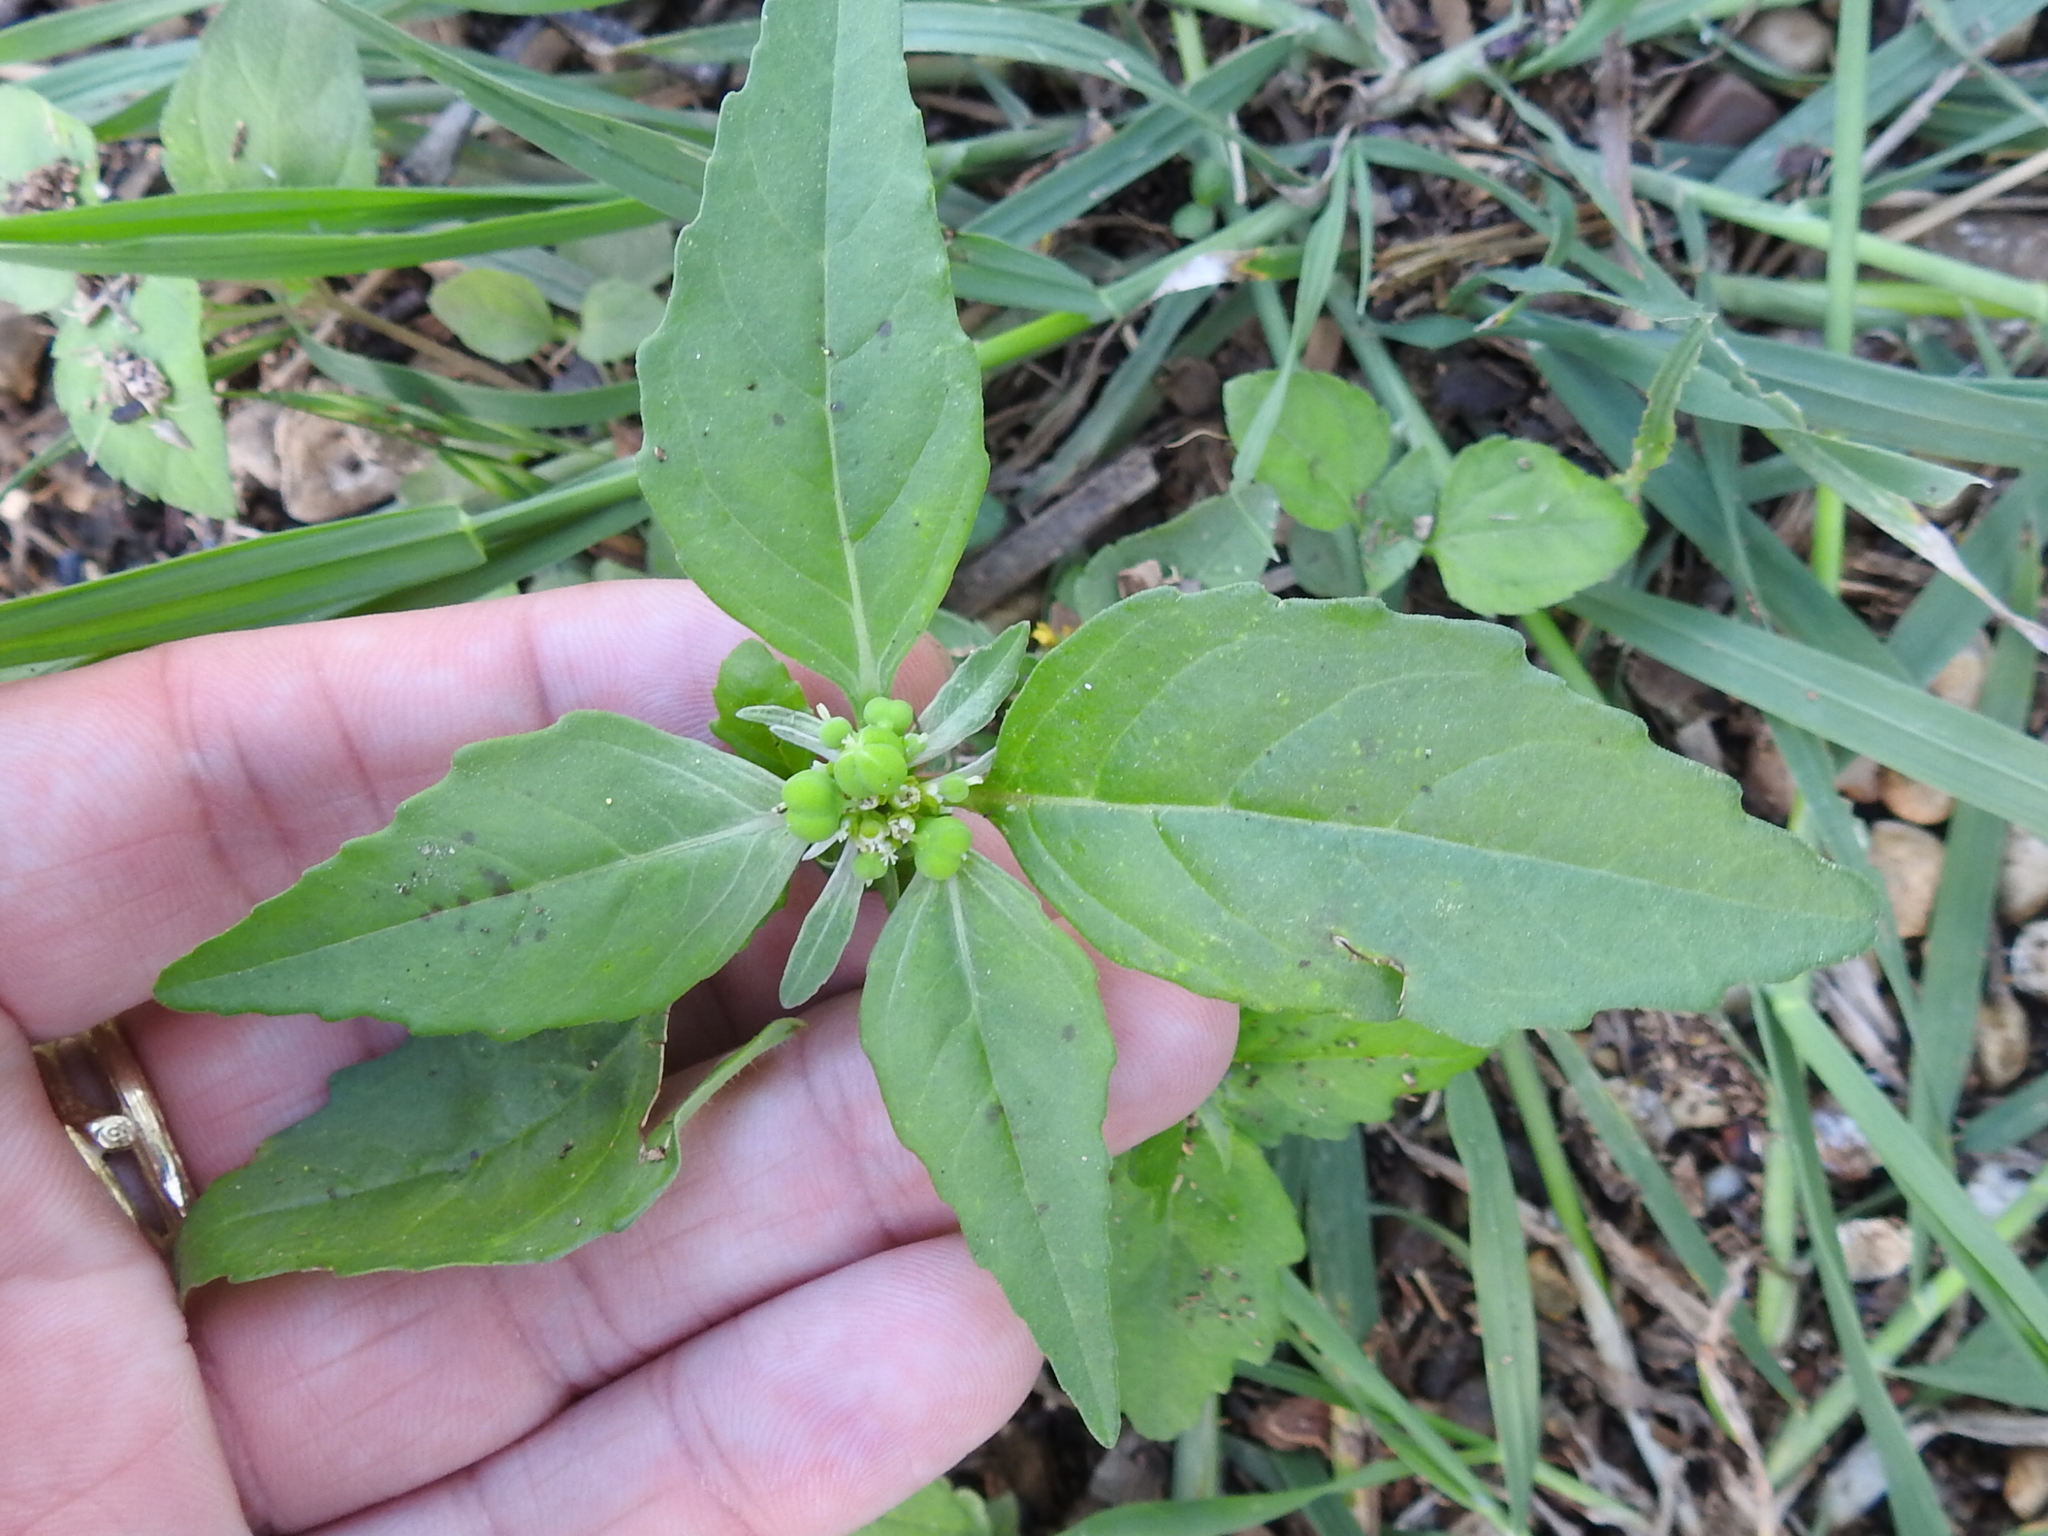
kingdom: Plantae
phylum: Tracheophyta
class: Magnoliopsida
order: Malpighiales
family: Euphorbiaceae
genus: Euphorbia
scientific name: Euphorbia dentata
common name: Dentate spurge
